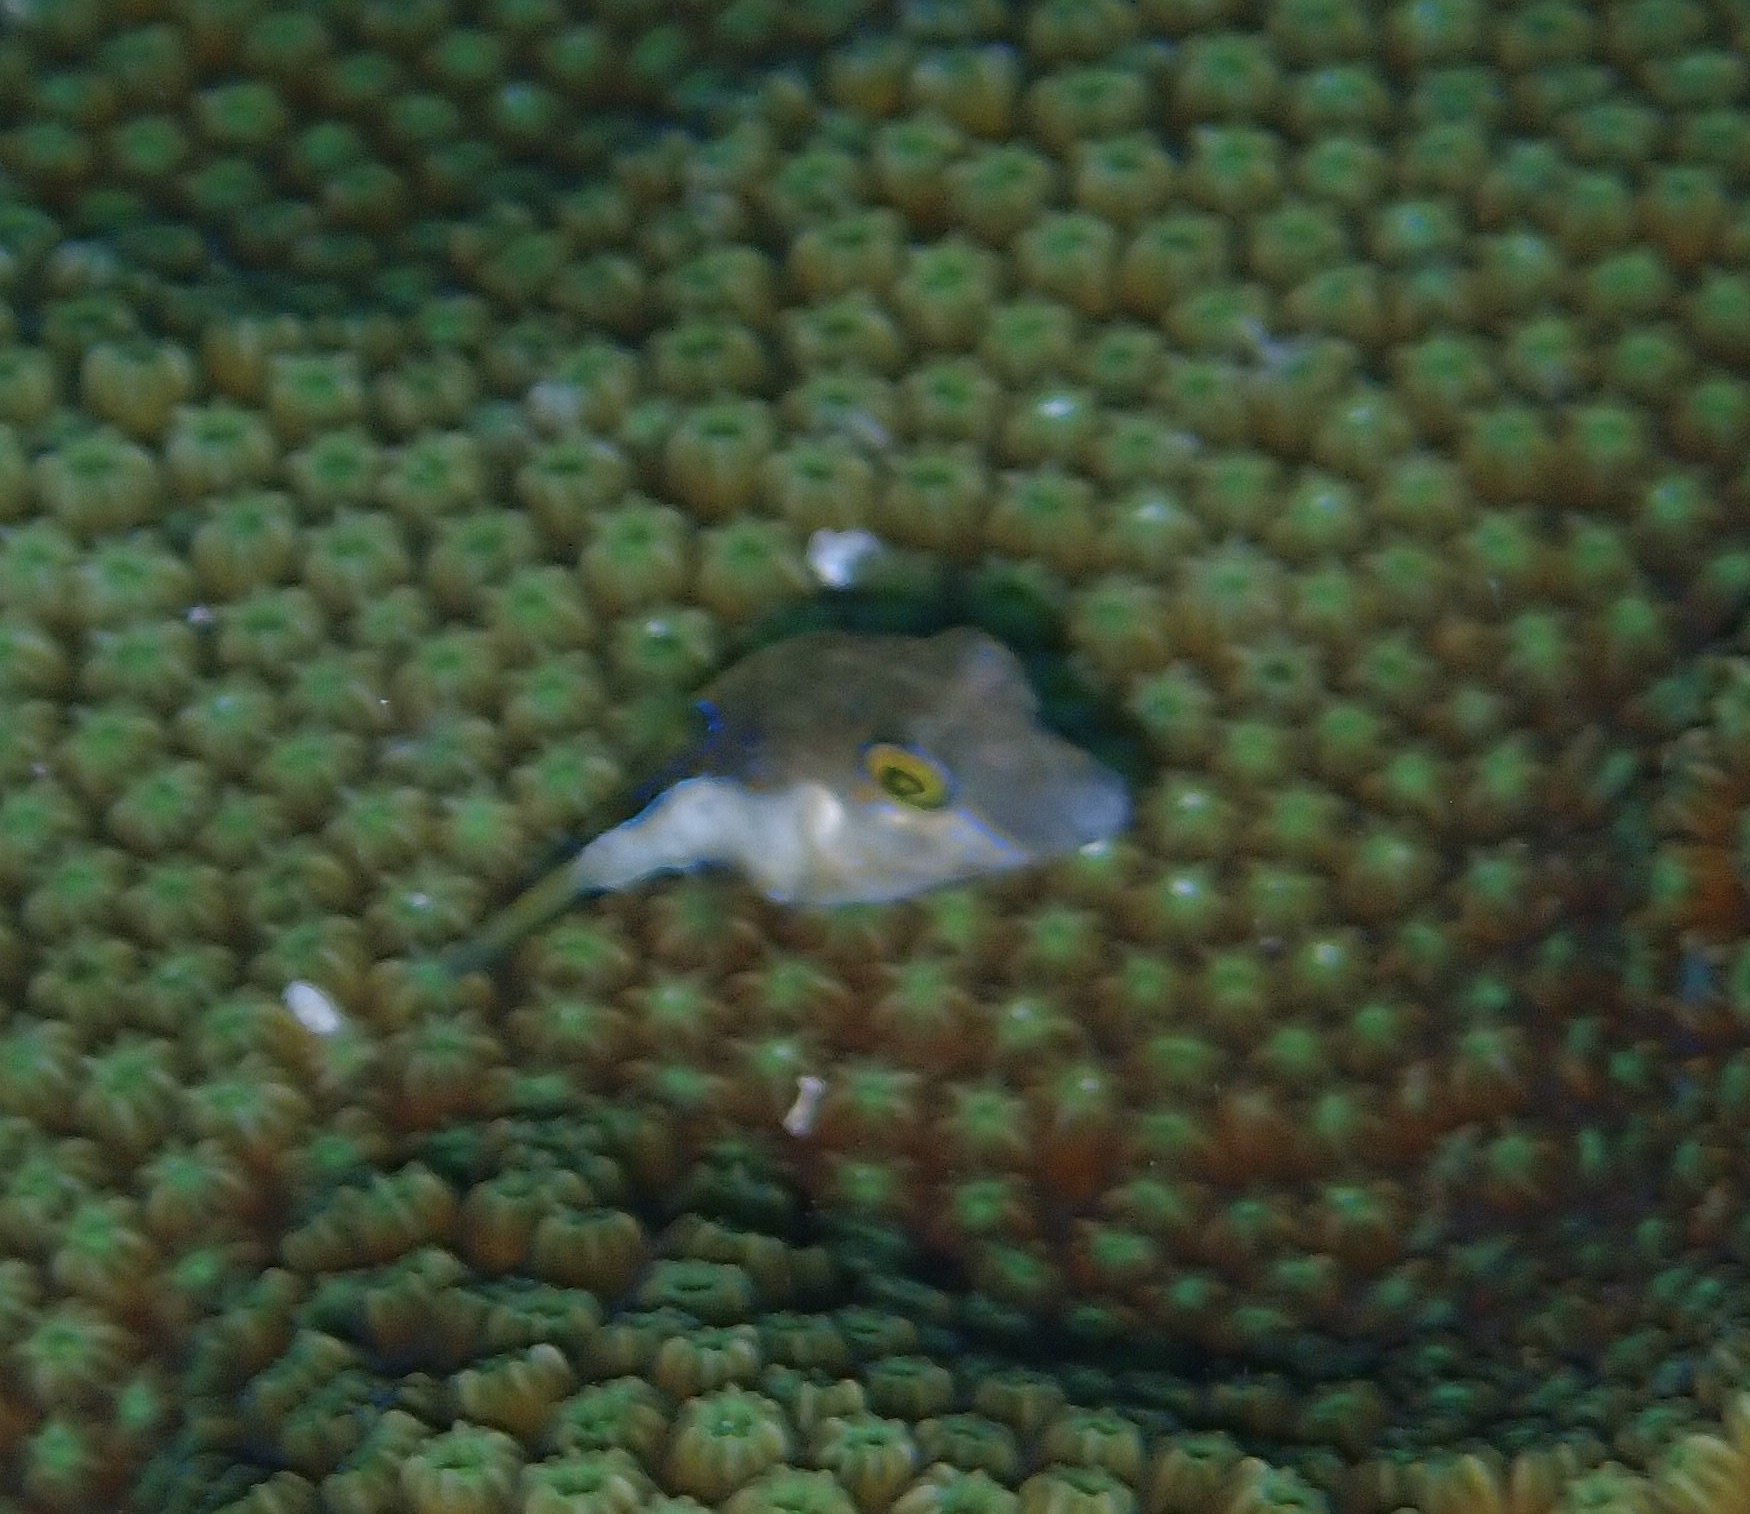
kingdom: Animalia
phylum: Chordata
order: Tetraodontiformes
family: Tetraodontidae
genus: Canthigaster
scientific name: Canthigaster rostrata
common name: Caribbean sharpnose-puffer
